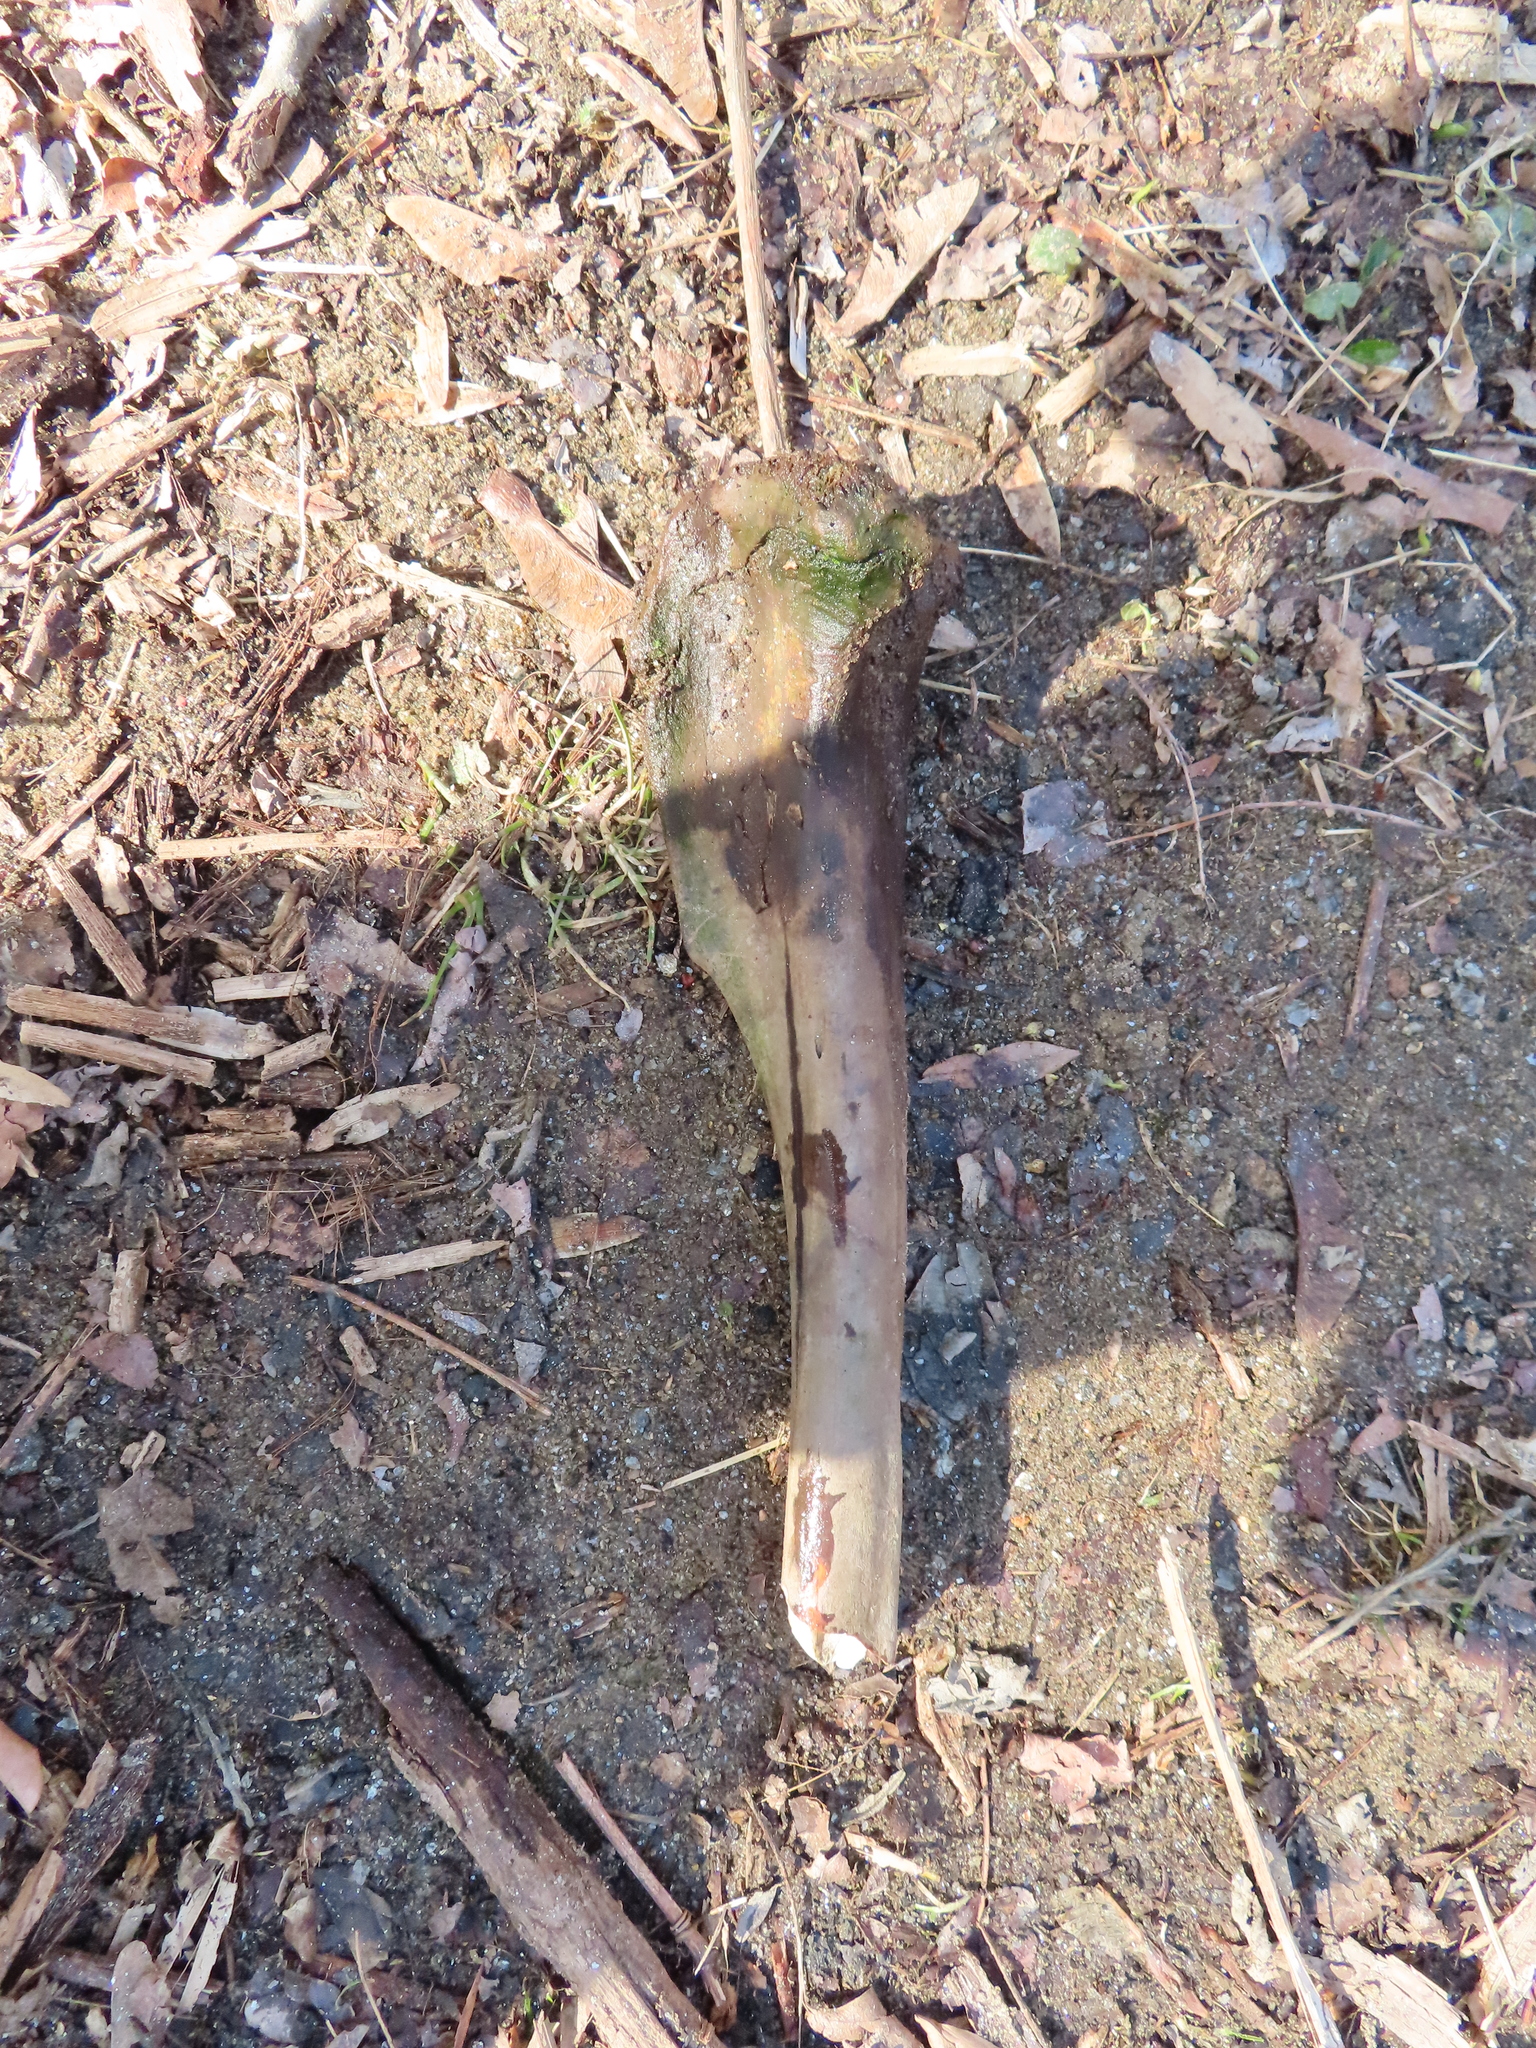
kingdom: Animalia
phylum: Chordata
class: Mammalia
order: Artiodactyla
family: Cervidae
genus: Odocoileus
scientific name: Odocoileus virginianus
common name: White-tailed deer
